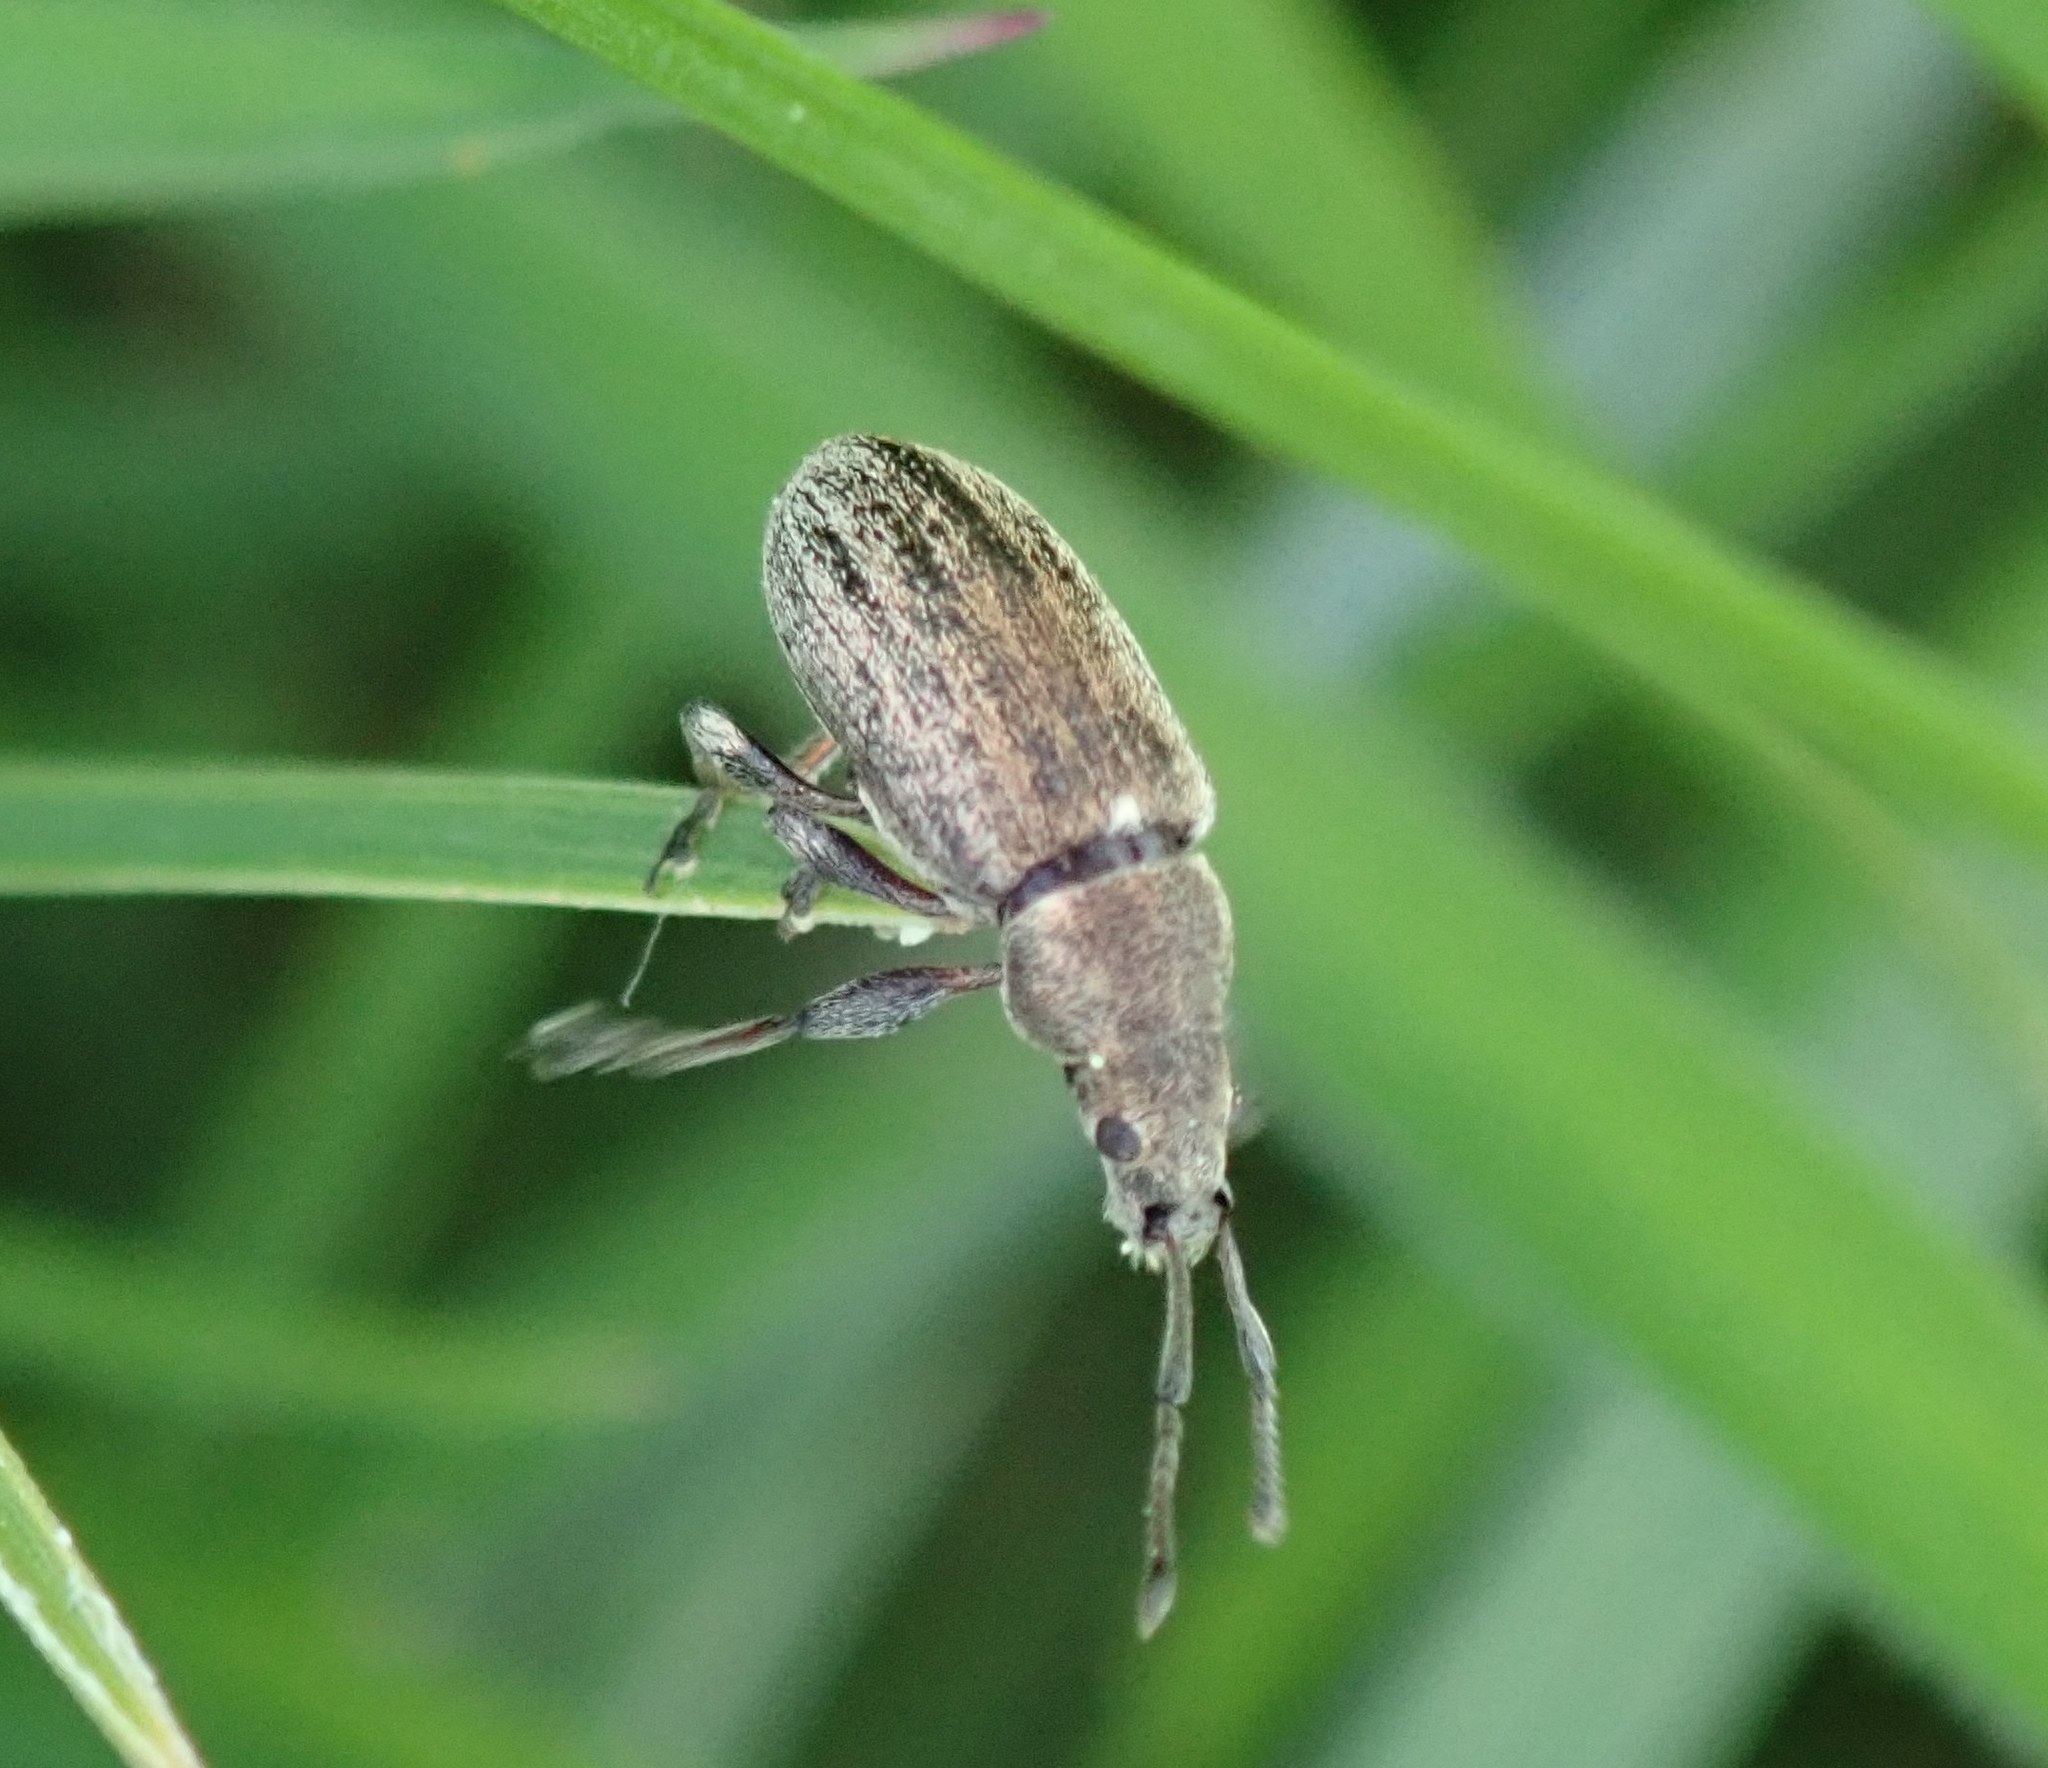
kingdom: Animalia
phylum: Arthropoda
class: Insecta
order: Coleoptera
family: Curculionidae
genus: Phyllobius
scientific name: Phyllobius pyri
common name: Common leaf weevil
